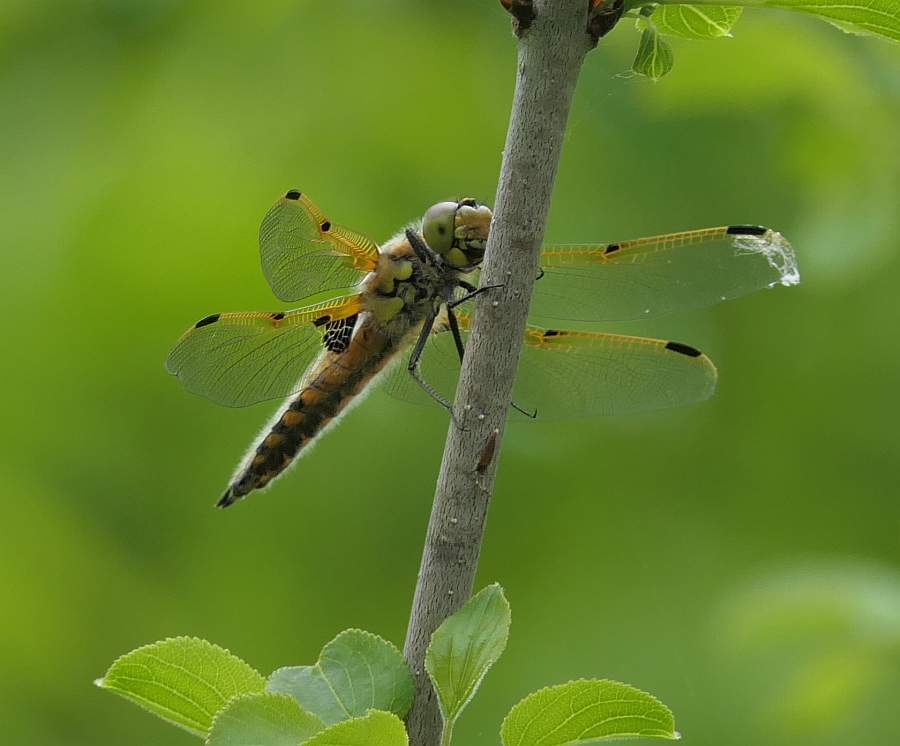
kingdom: Animalia
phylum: Arthropoda
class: Insecta
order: Odonata
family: Libellulidae
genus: Libellula
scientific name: Libellula quadrimaculata
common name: Four-spotted chaser
